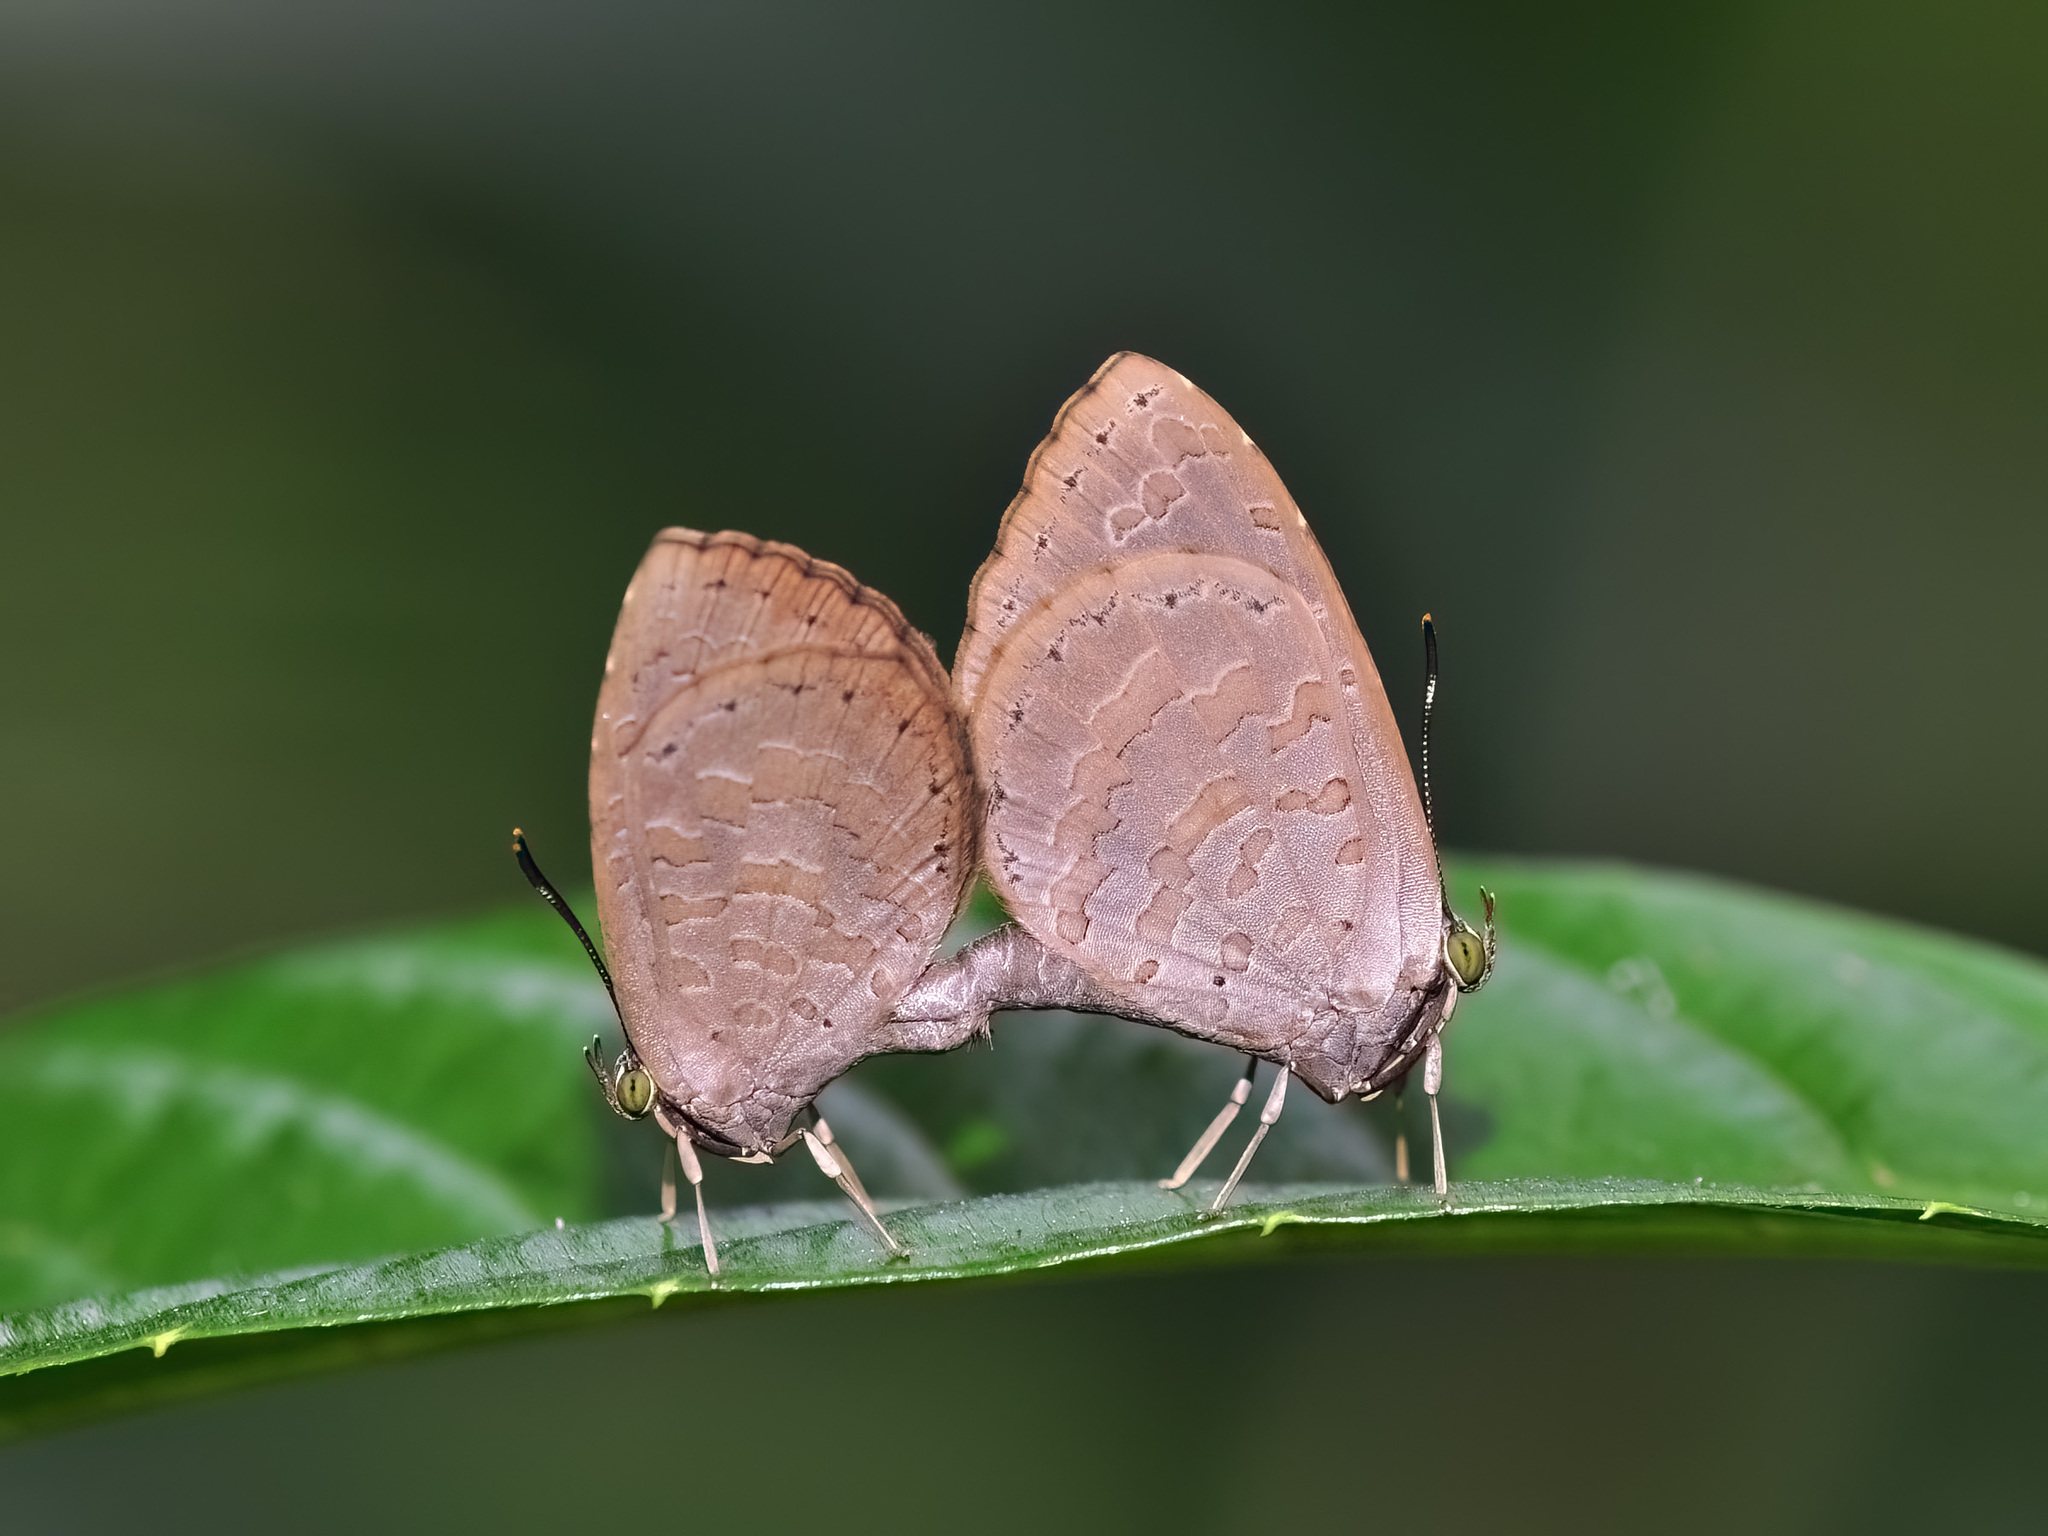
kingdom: Animalia
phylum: Arthropoda
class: Insecta
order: Lepidoptera
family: Lycaenidae
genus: Miletus
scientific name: Miletus biggsii
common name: Bigg's brownie
